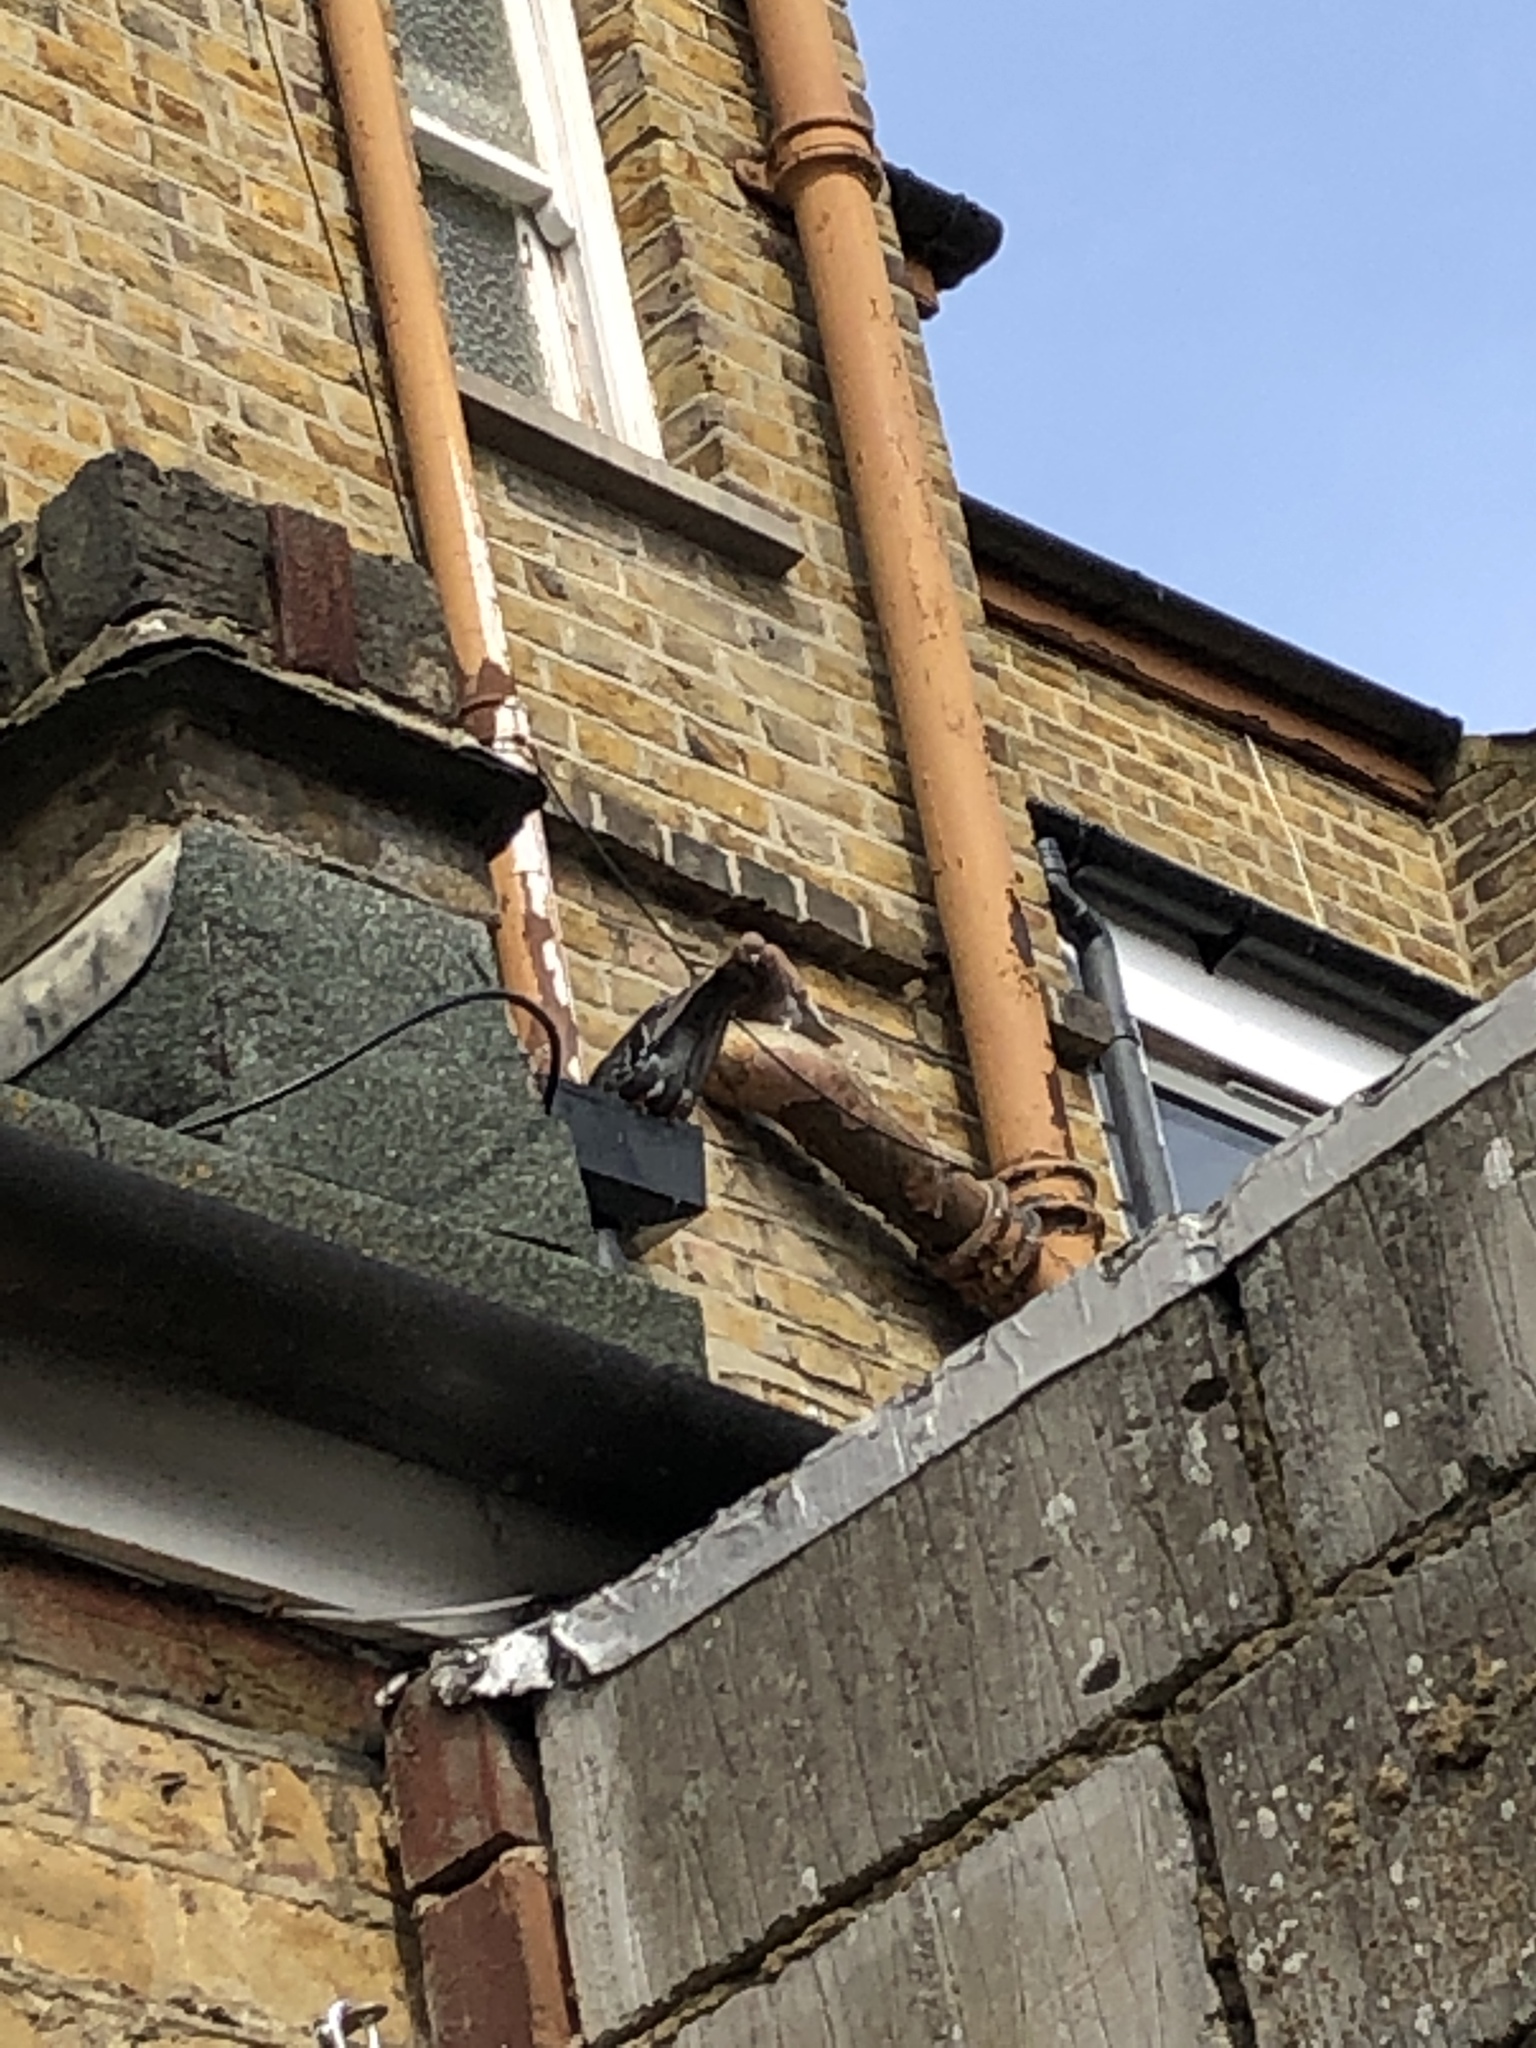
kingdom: Animalia
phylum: Chordata
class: Aves
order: Columbiformes
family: Columbidae
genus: Columba
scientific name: Columba livia
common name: Rock pigeon
